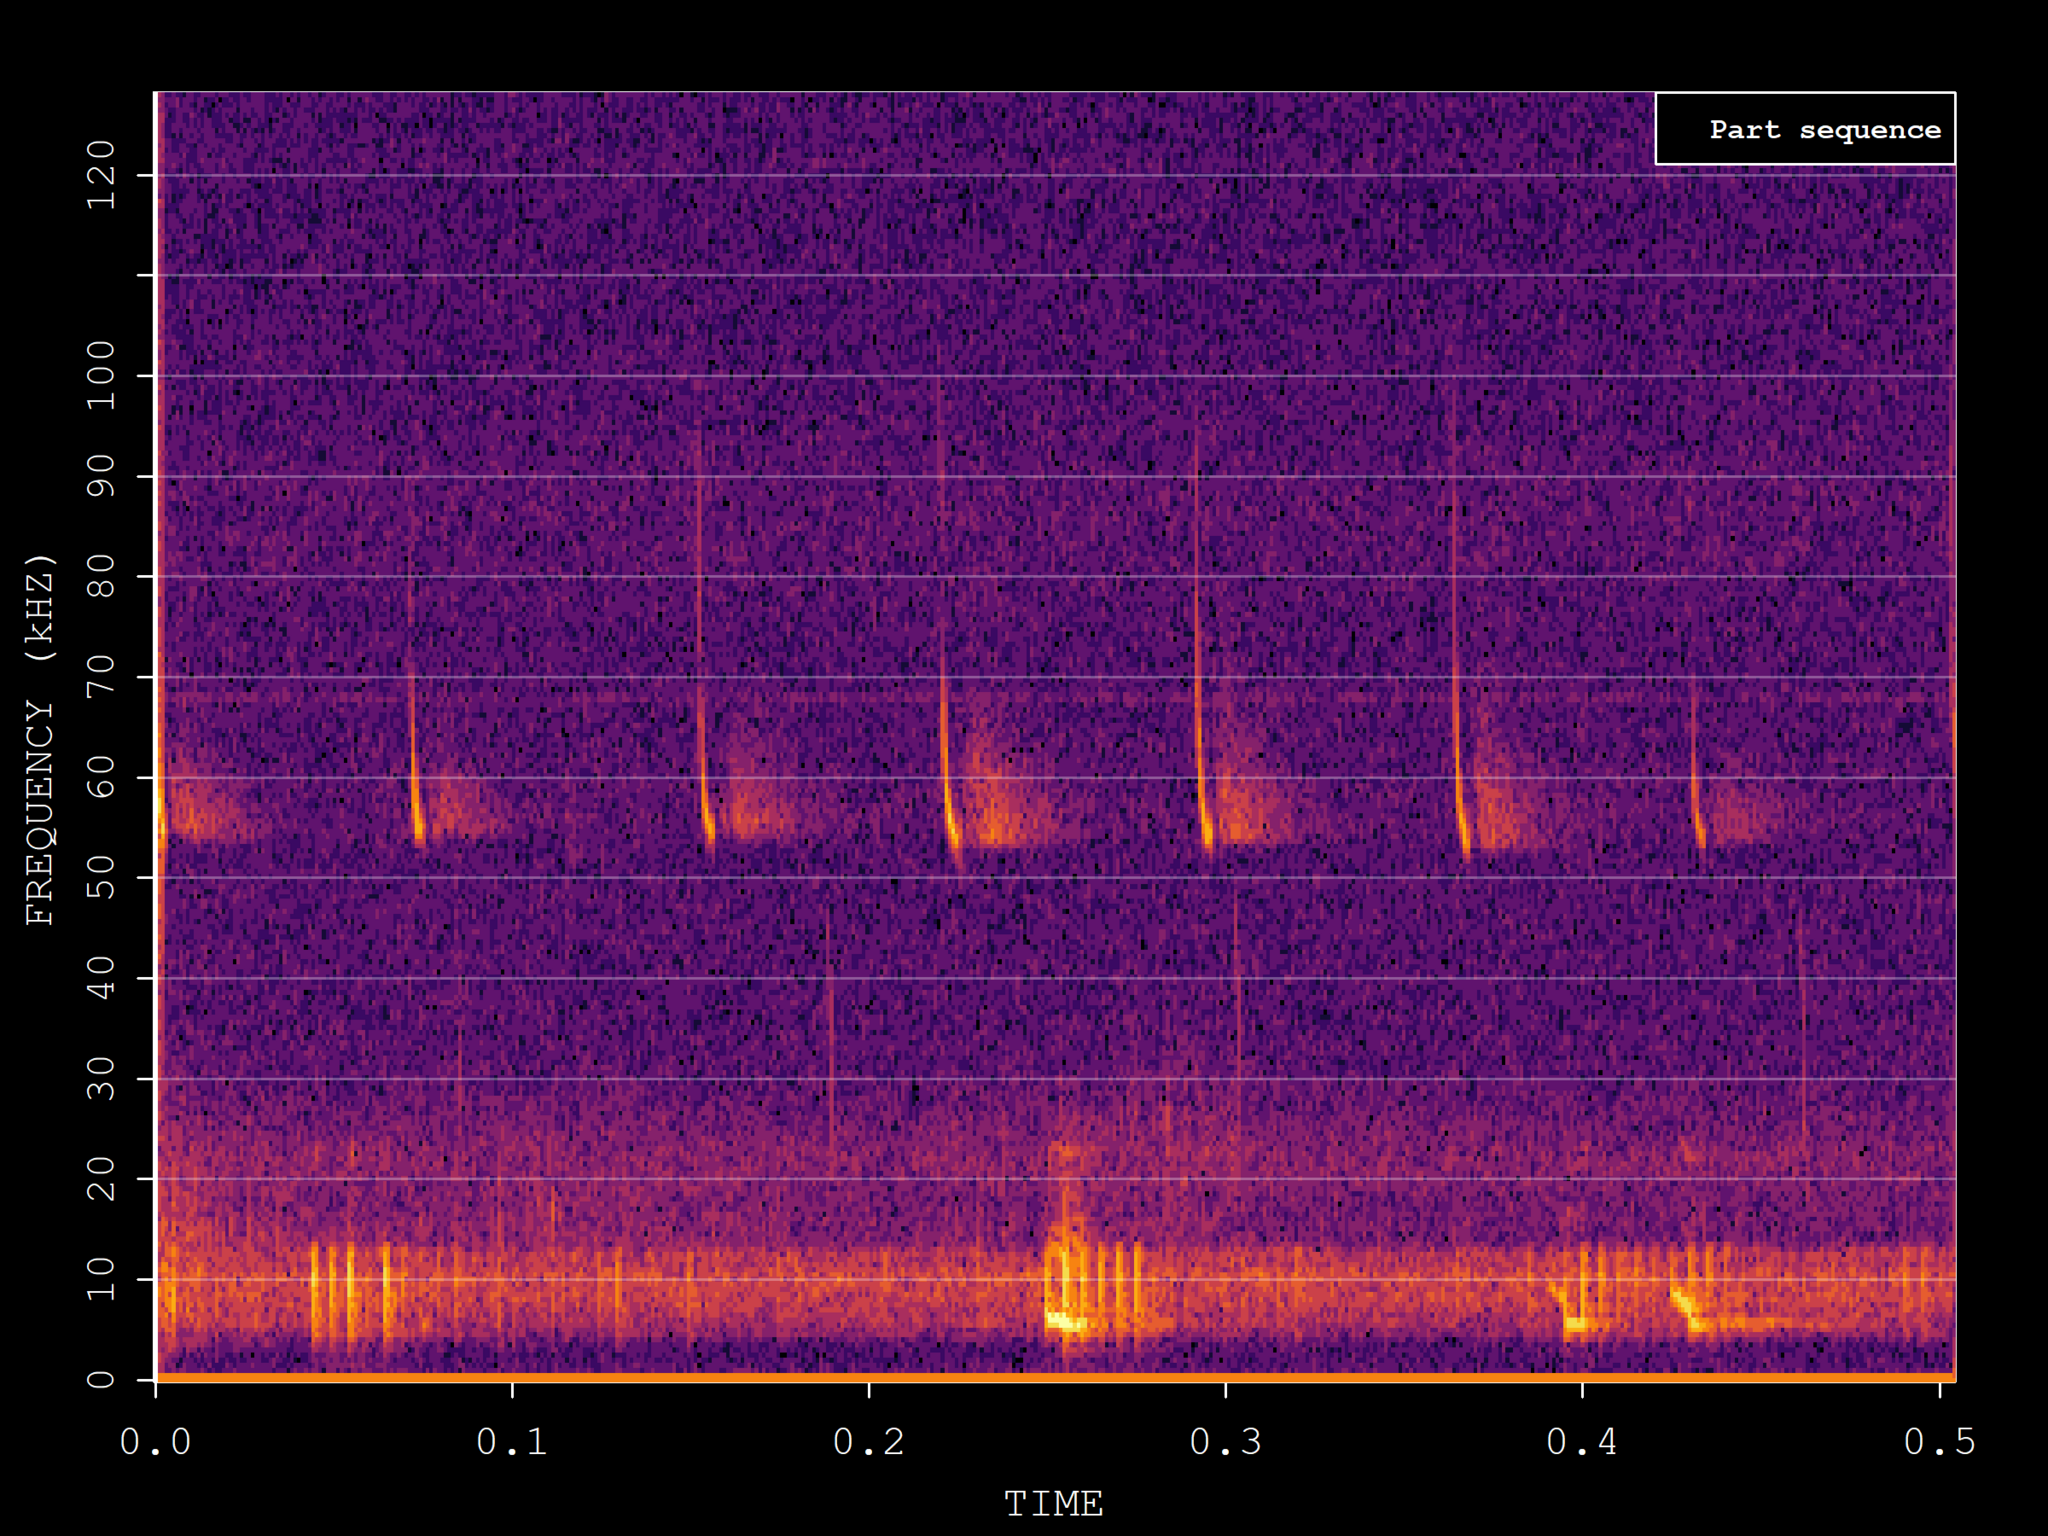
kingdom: Animalia
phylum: Chordata
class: Mammalia
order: Chiroptera
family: Vespertilionidae
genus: Pipistrellus
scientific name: Pipistrellus pygmaeus
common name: Soprano pipistrelle
